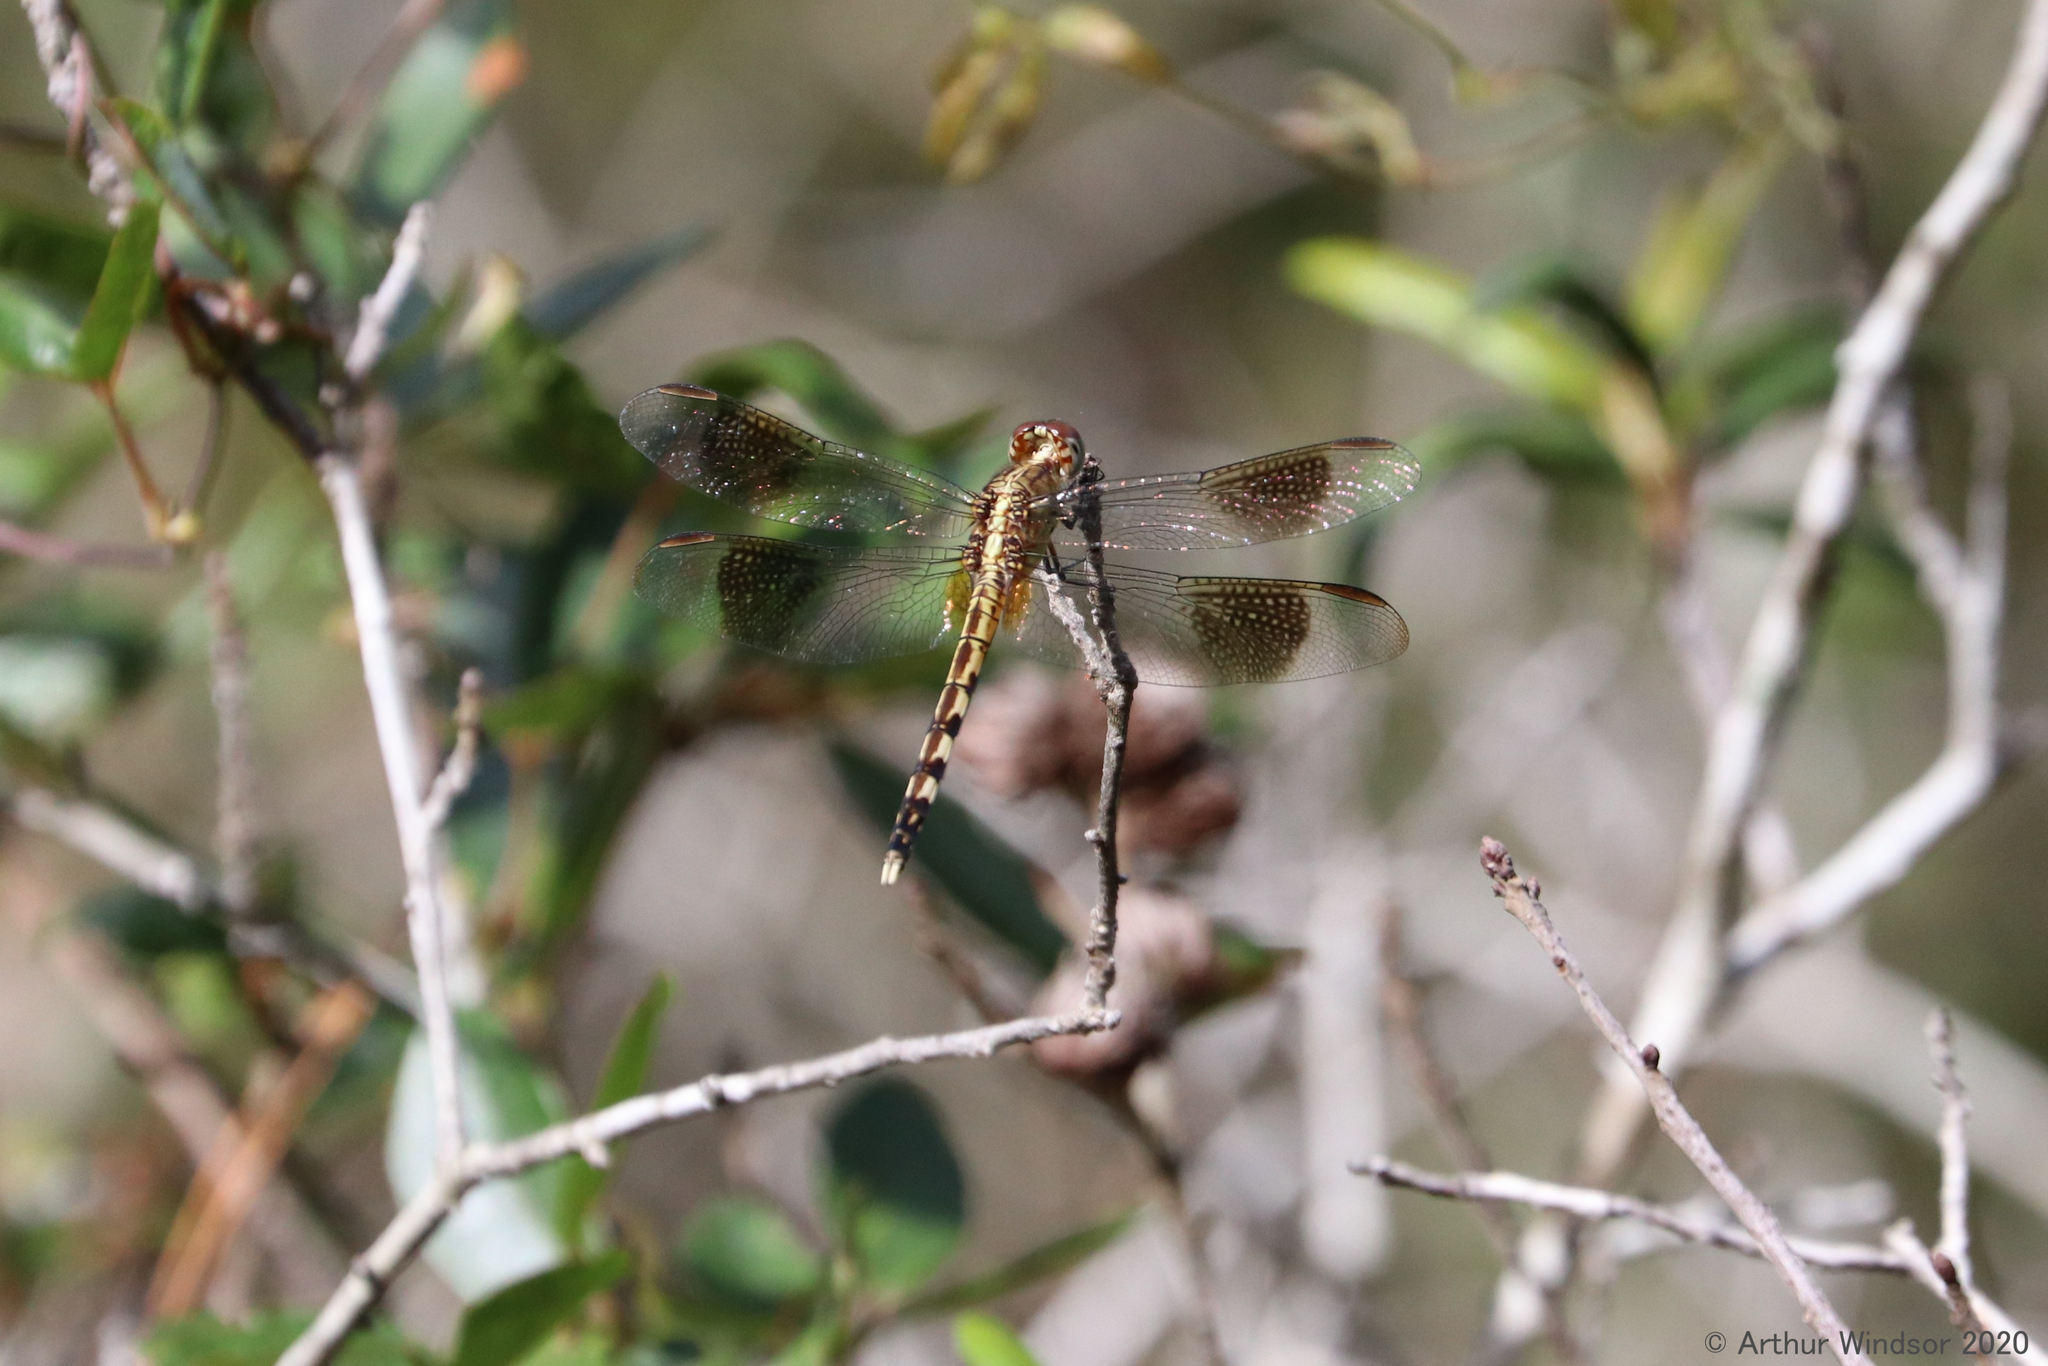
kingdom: Animalia
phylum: Arthropoda
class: Insecta
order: Odonata
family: Libellulidae
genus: Erythrodiplax
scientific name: Erythrodiplax umbrata
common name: Band-winged dragonlet
